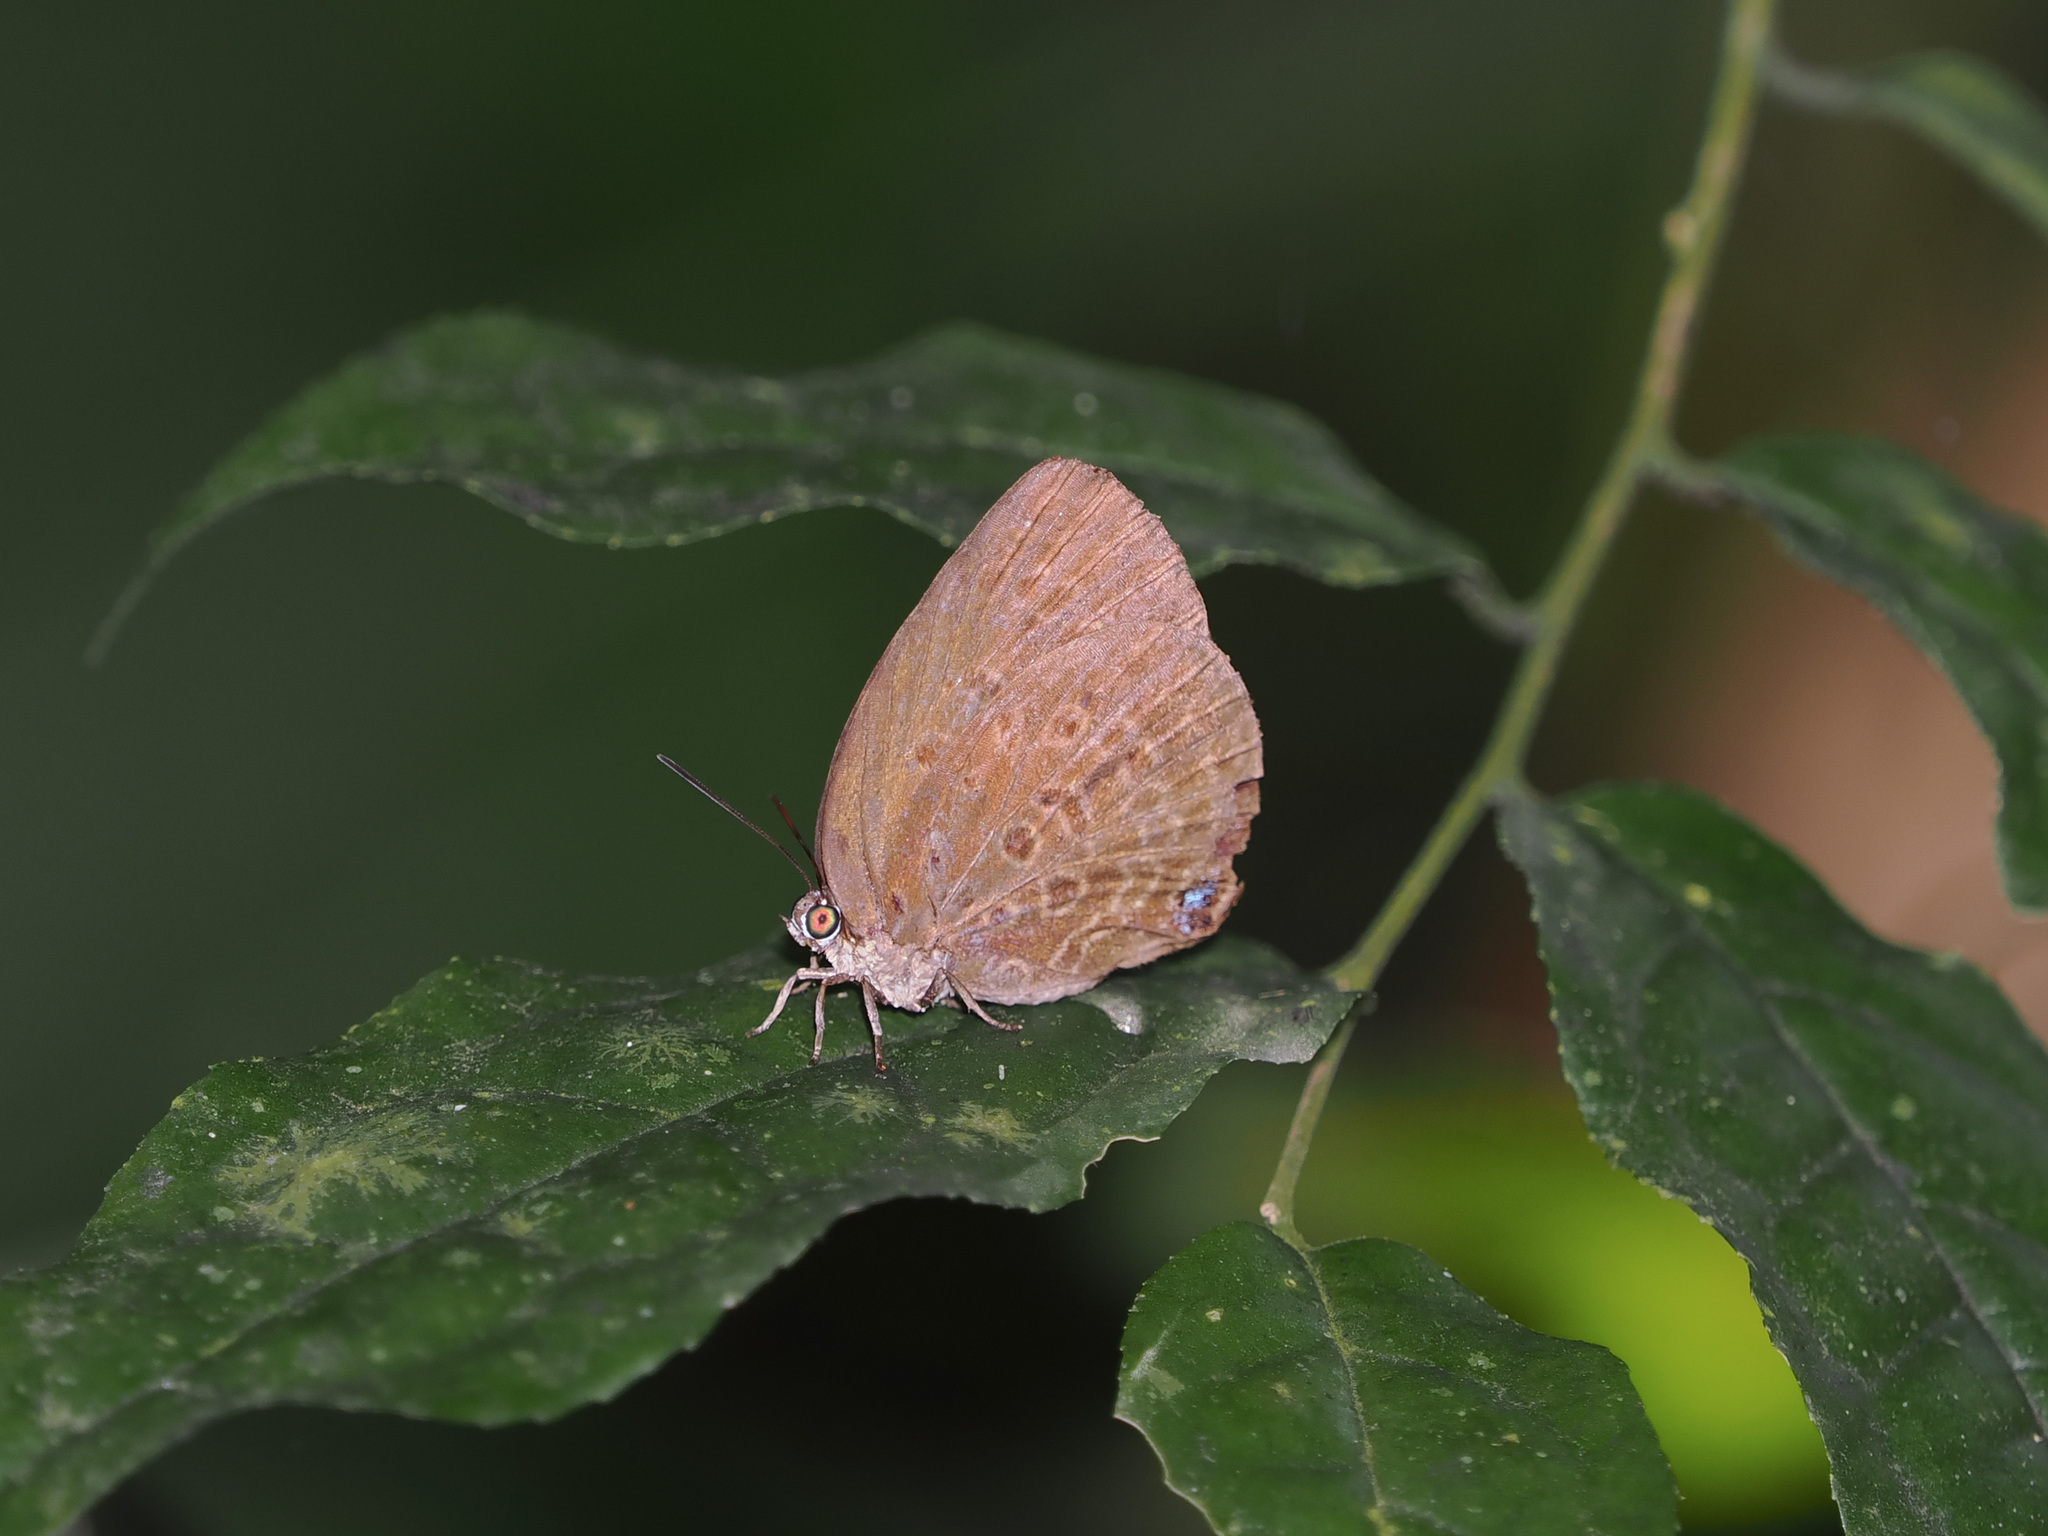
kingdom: Animalia
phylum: Arthropoda
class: Insecta
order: Lepidoptera
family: Lycaenidae
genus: Arhopala
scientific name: Arhopala major
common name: Major yellow oakblue
